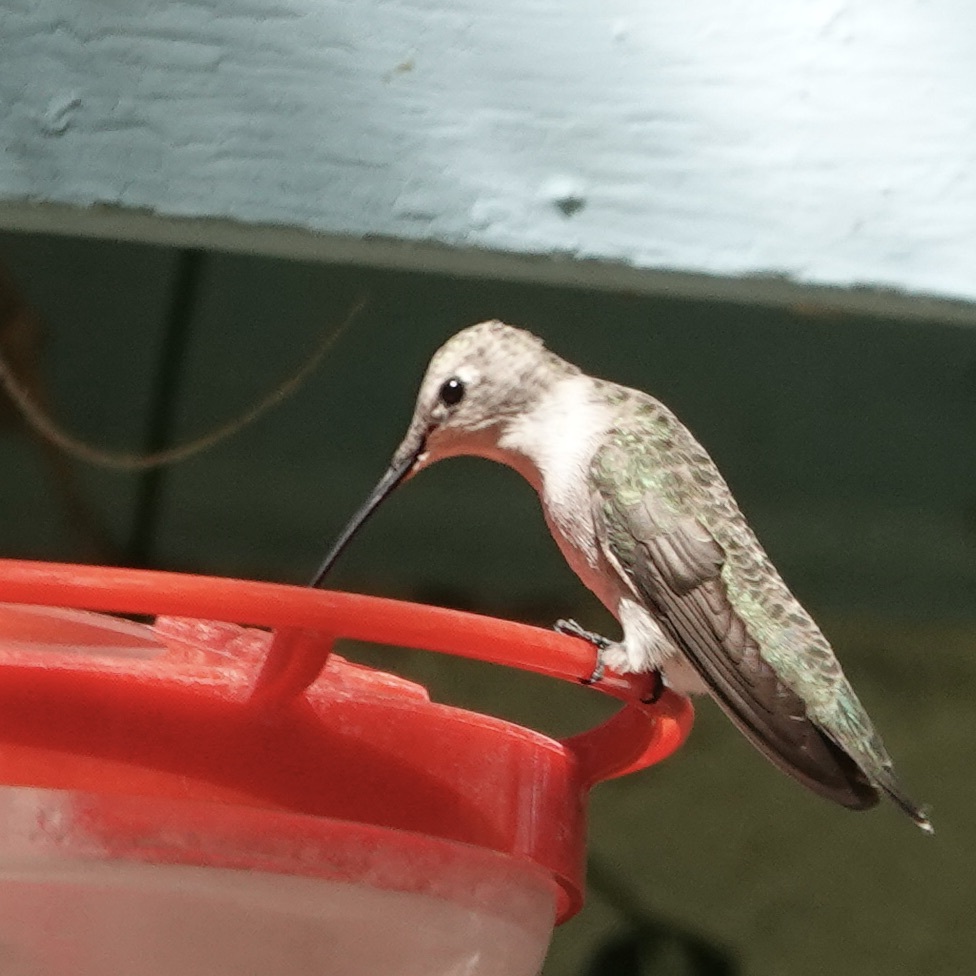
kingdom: Animalia
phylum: Chordata
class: Aves
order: Apodiformes
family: Trochilidae
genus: Archilochus
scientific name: Archilochus alexandri
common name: Black-chinned hummingbird
